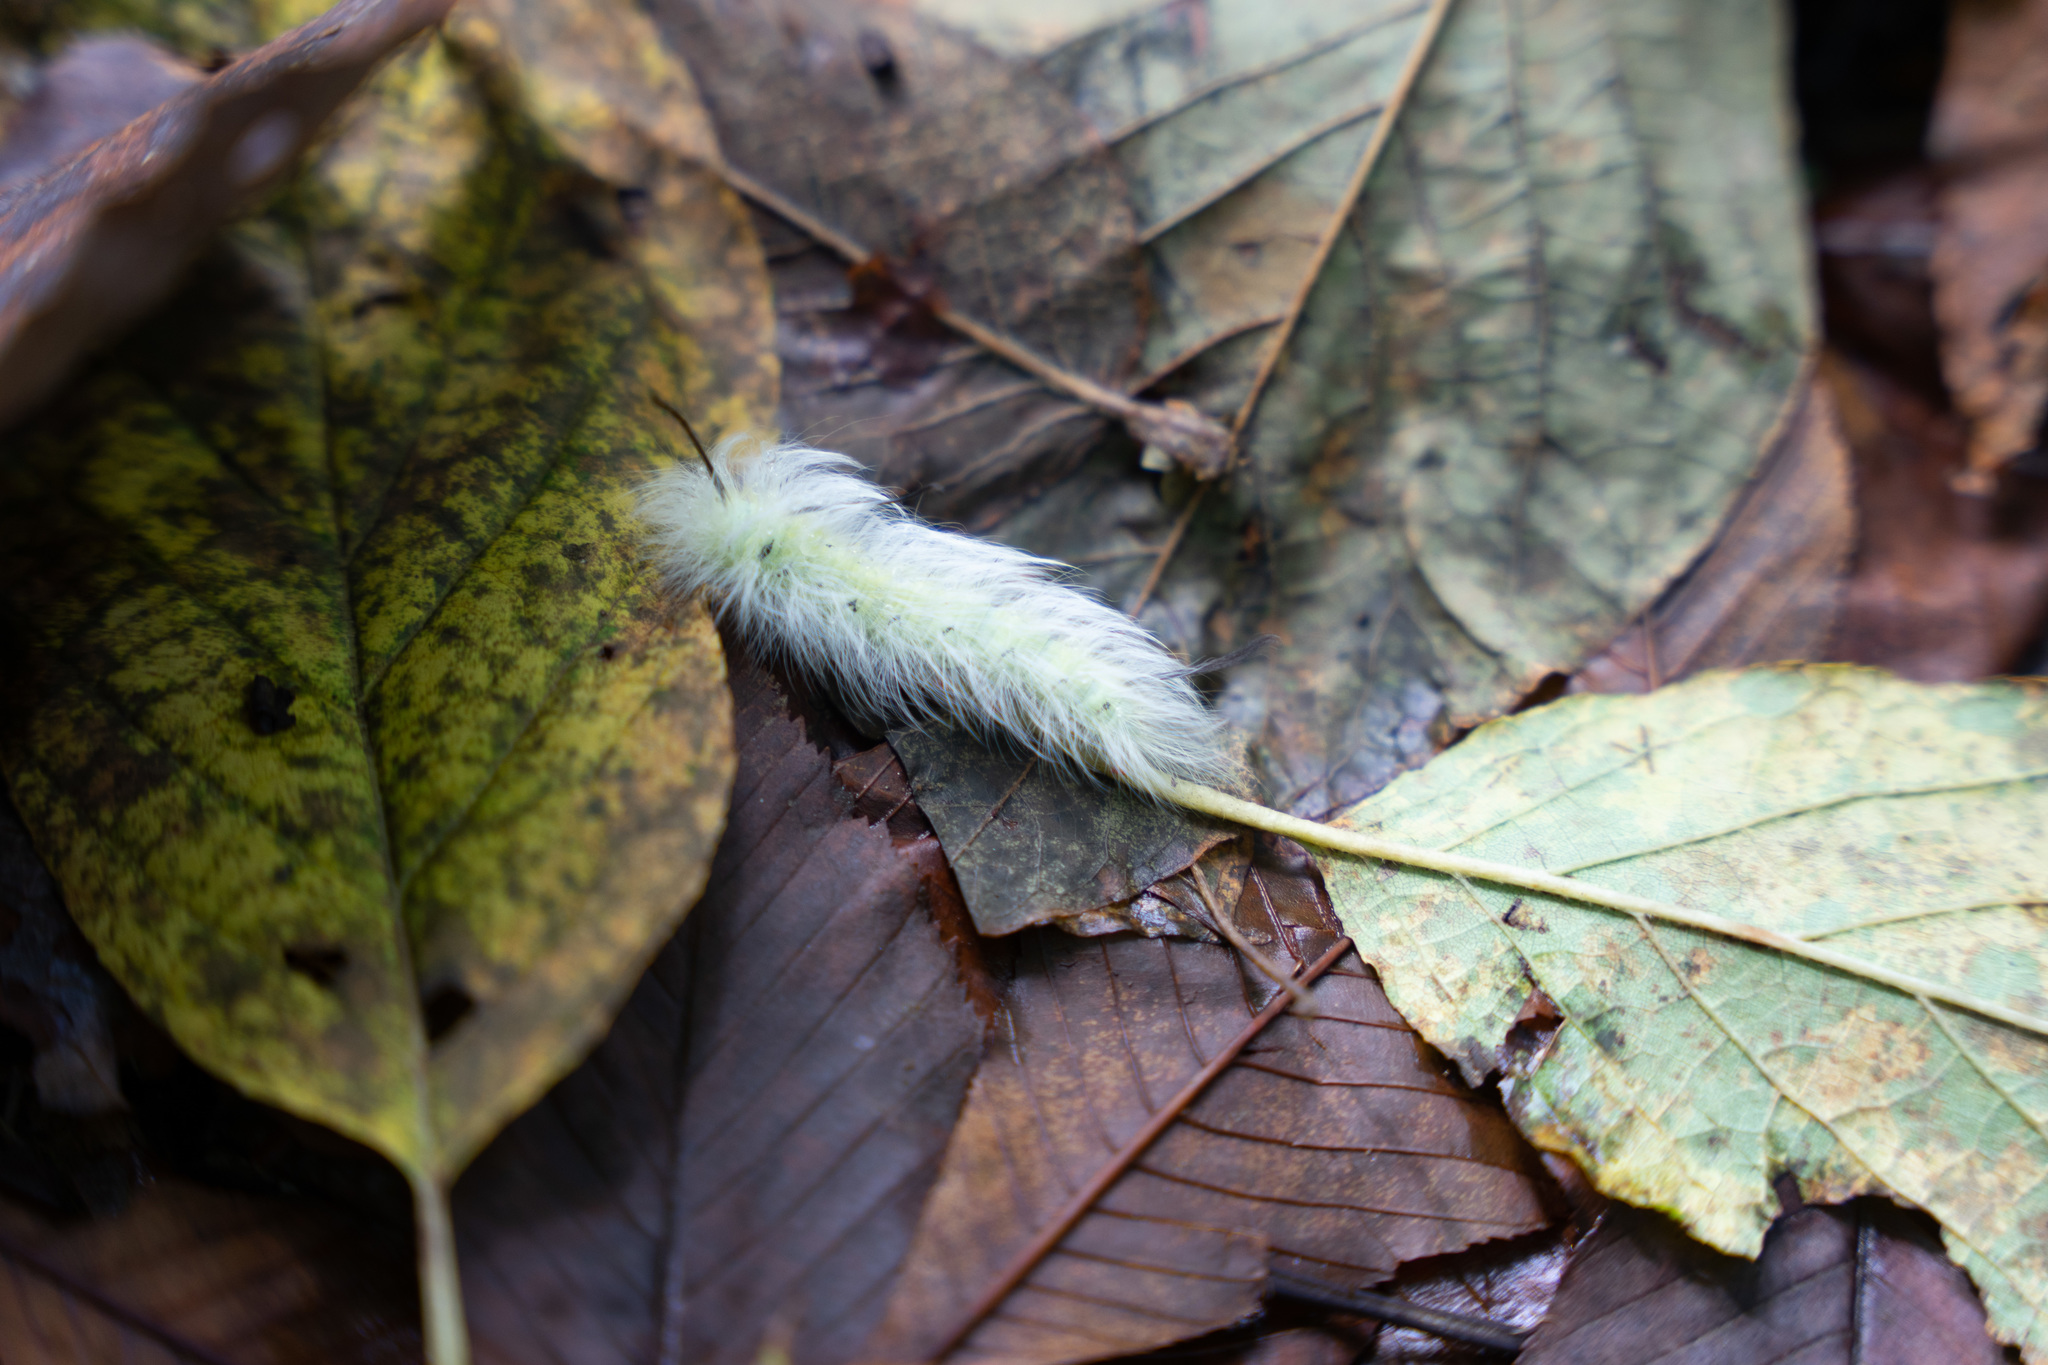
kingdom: Animalia
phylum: Arthropoda
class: Insecta
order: Lepidoptera
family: Apatelodidae
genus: Hygrochroa
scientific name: Hygrochroa Apatelodes torrefacta
